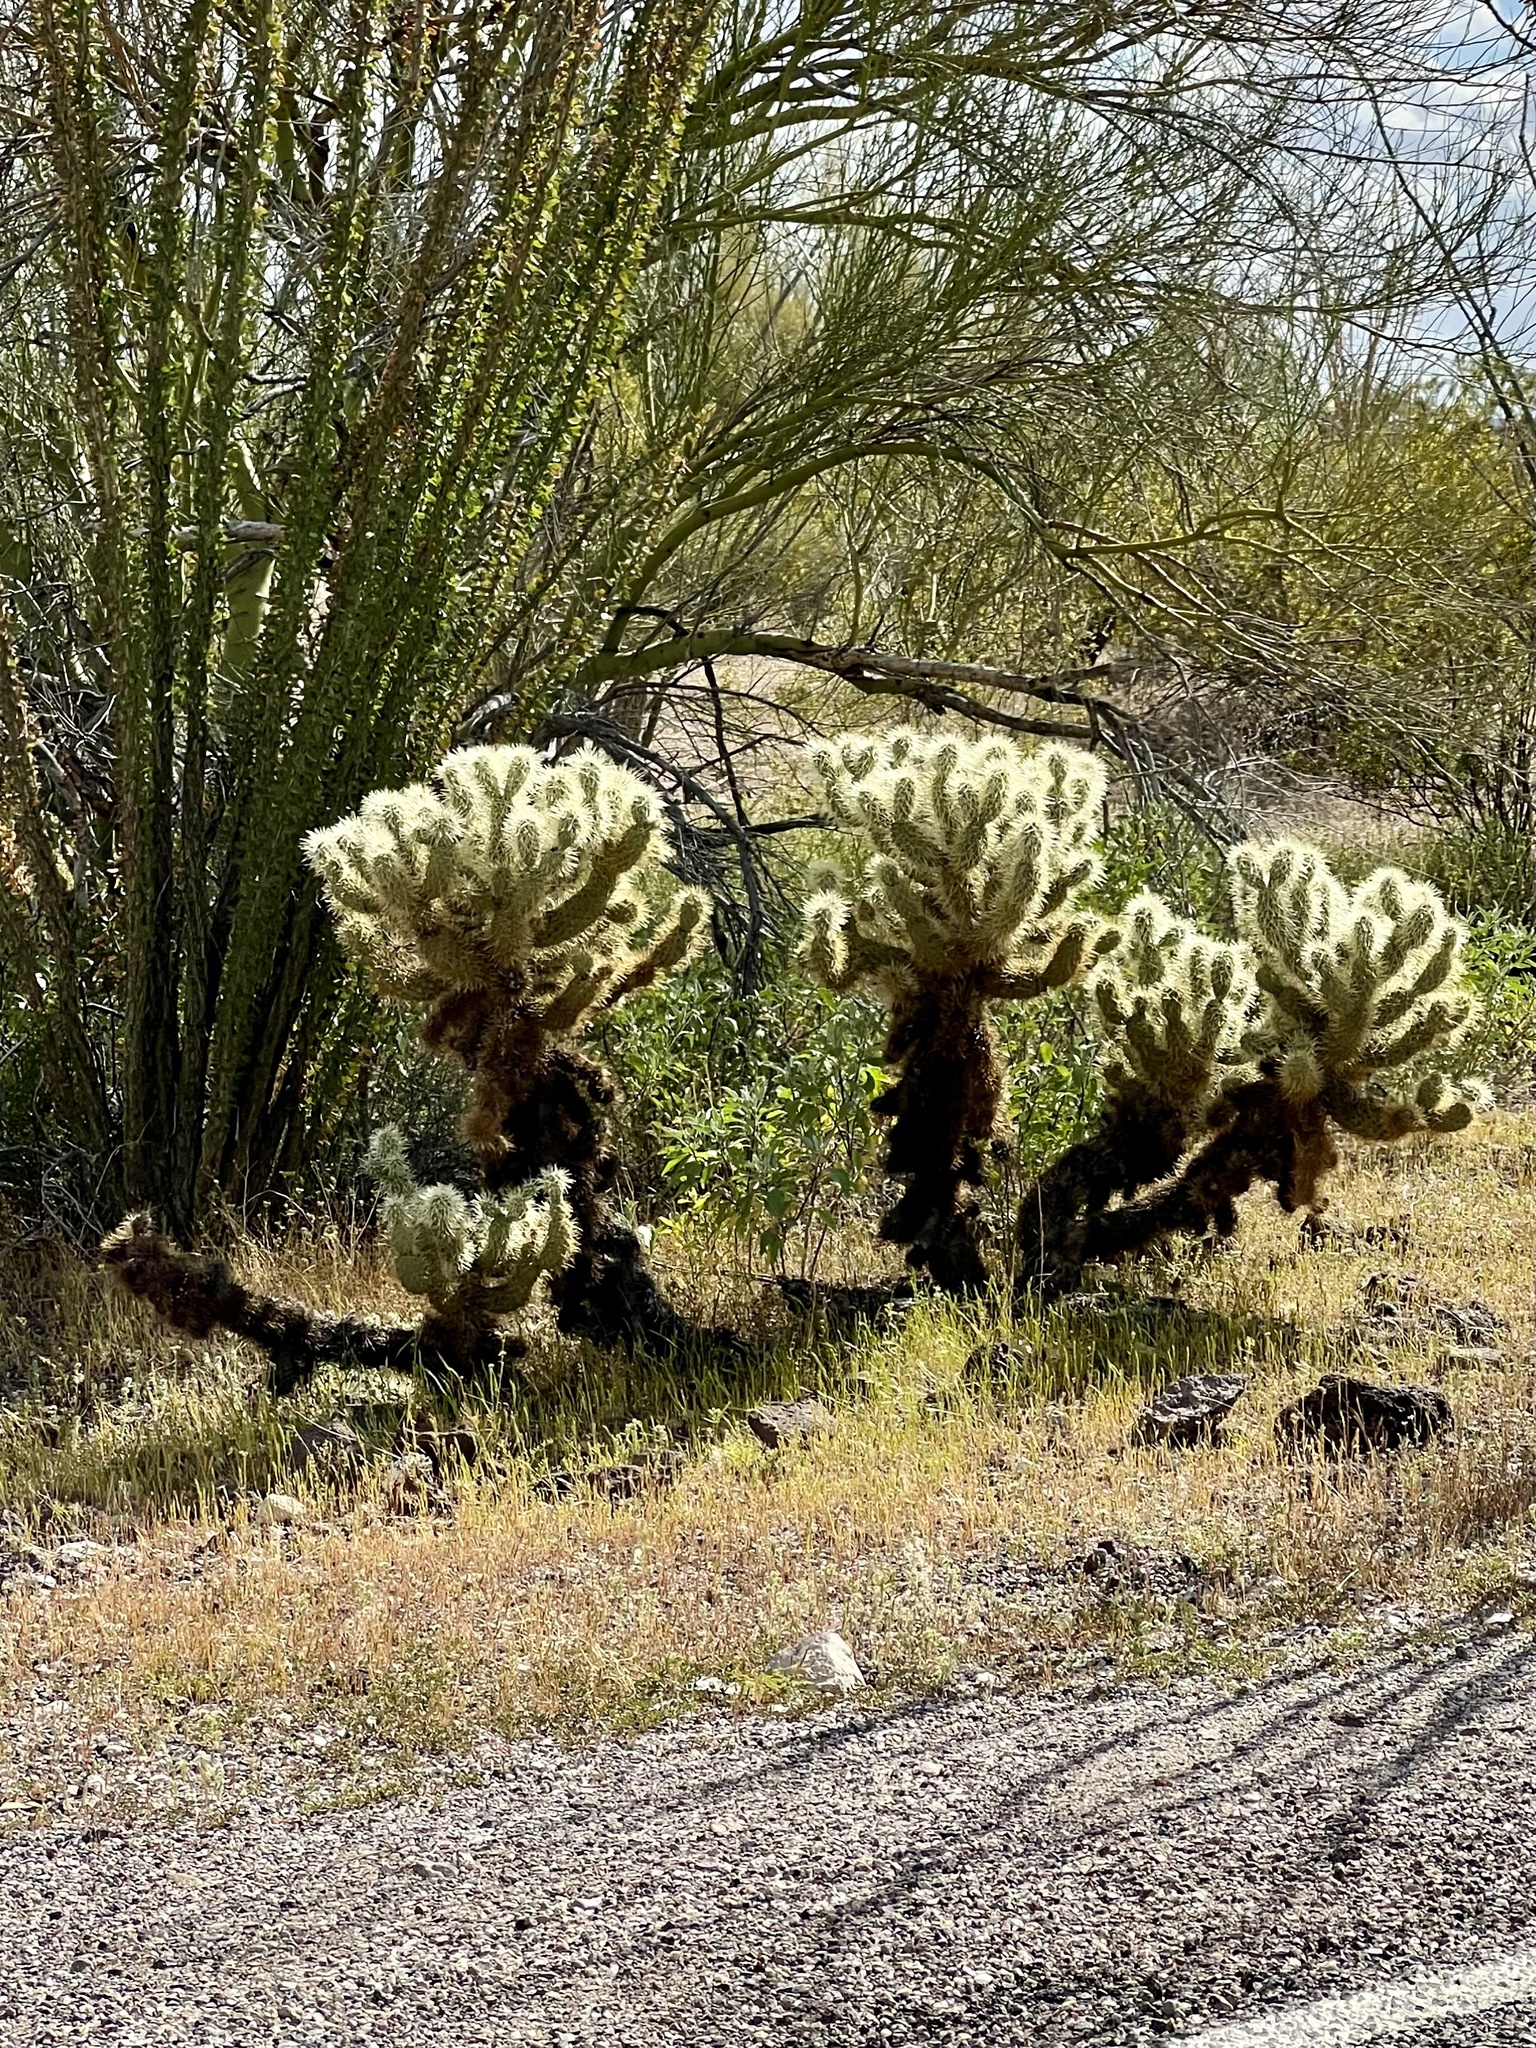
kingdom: Plantae
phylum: Tracheophyta
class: Magnoliopsida
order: Caryophyllales
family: Cactaceae
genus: Cylindropuntia
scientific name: Cylindropuntia fosbergii
